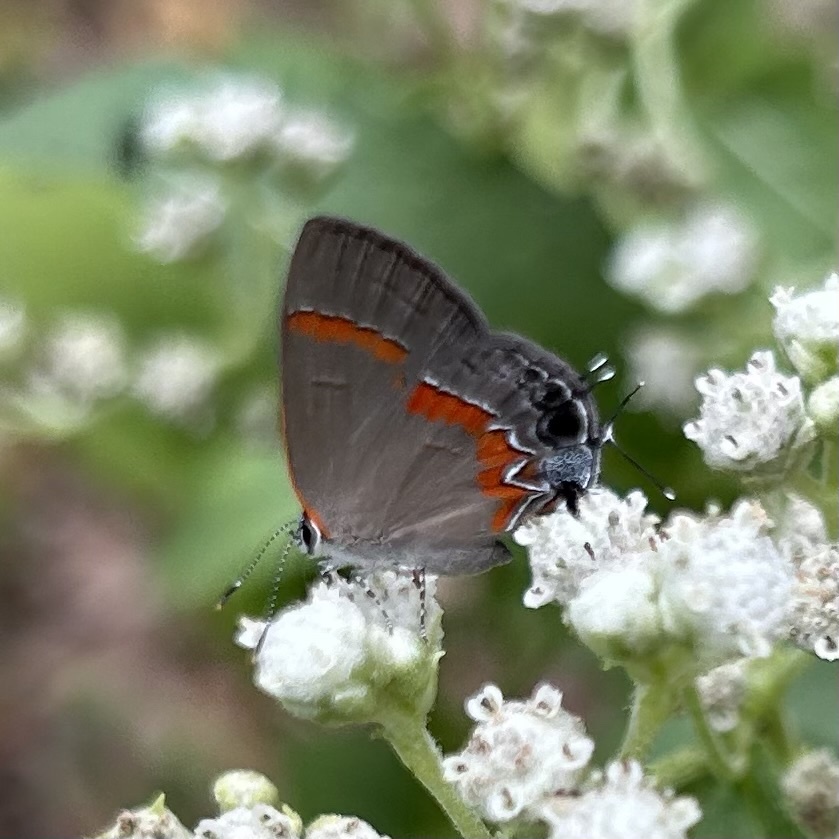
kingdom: Animalia
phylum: Arthropoda
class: Insecta
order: Lepidoptera
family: Lycaenidae
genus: Calycopis
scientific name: Calycopis cecrops
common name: Red-banded hairstreak
